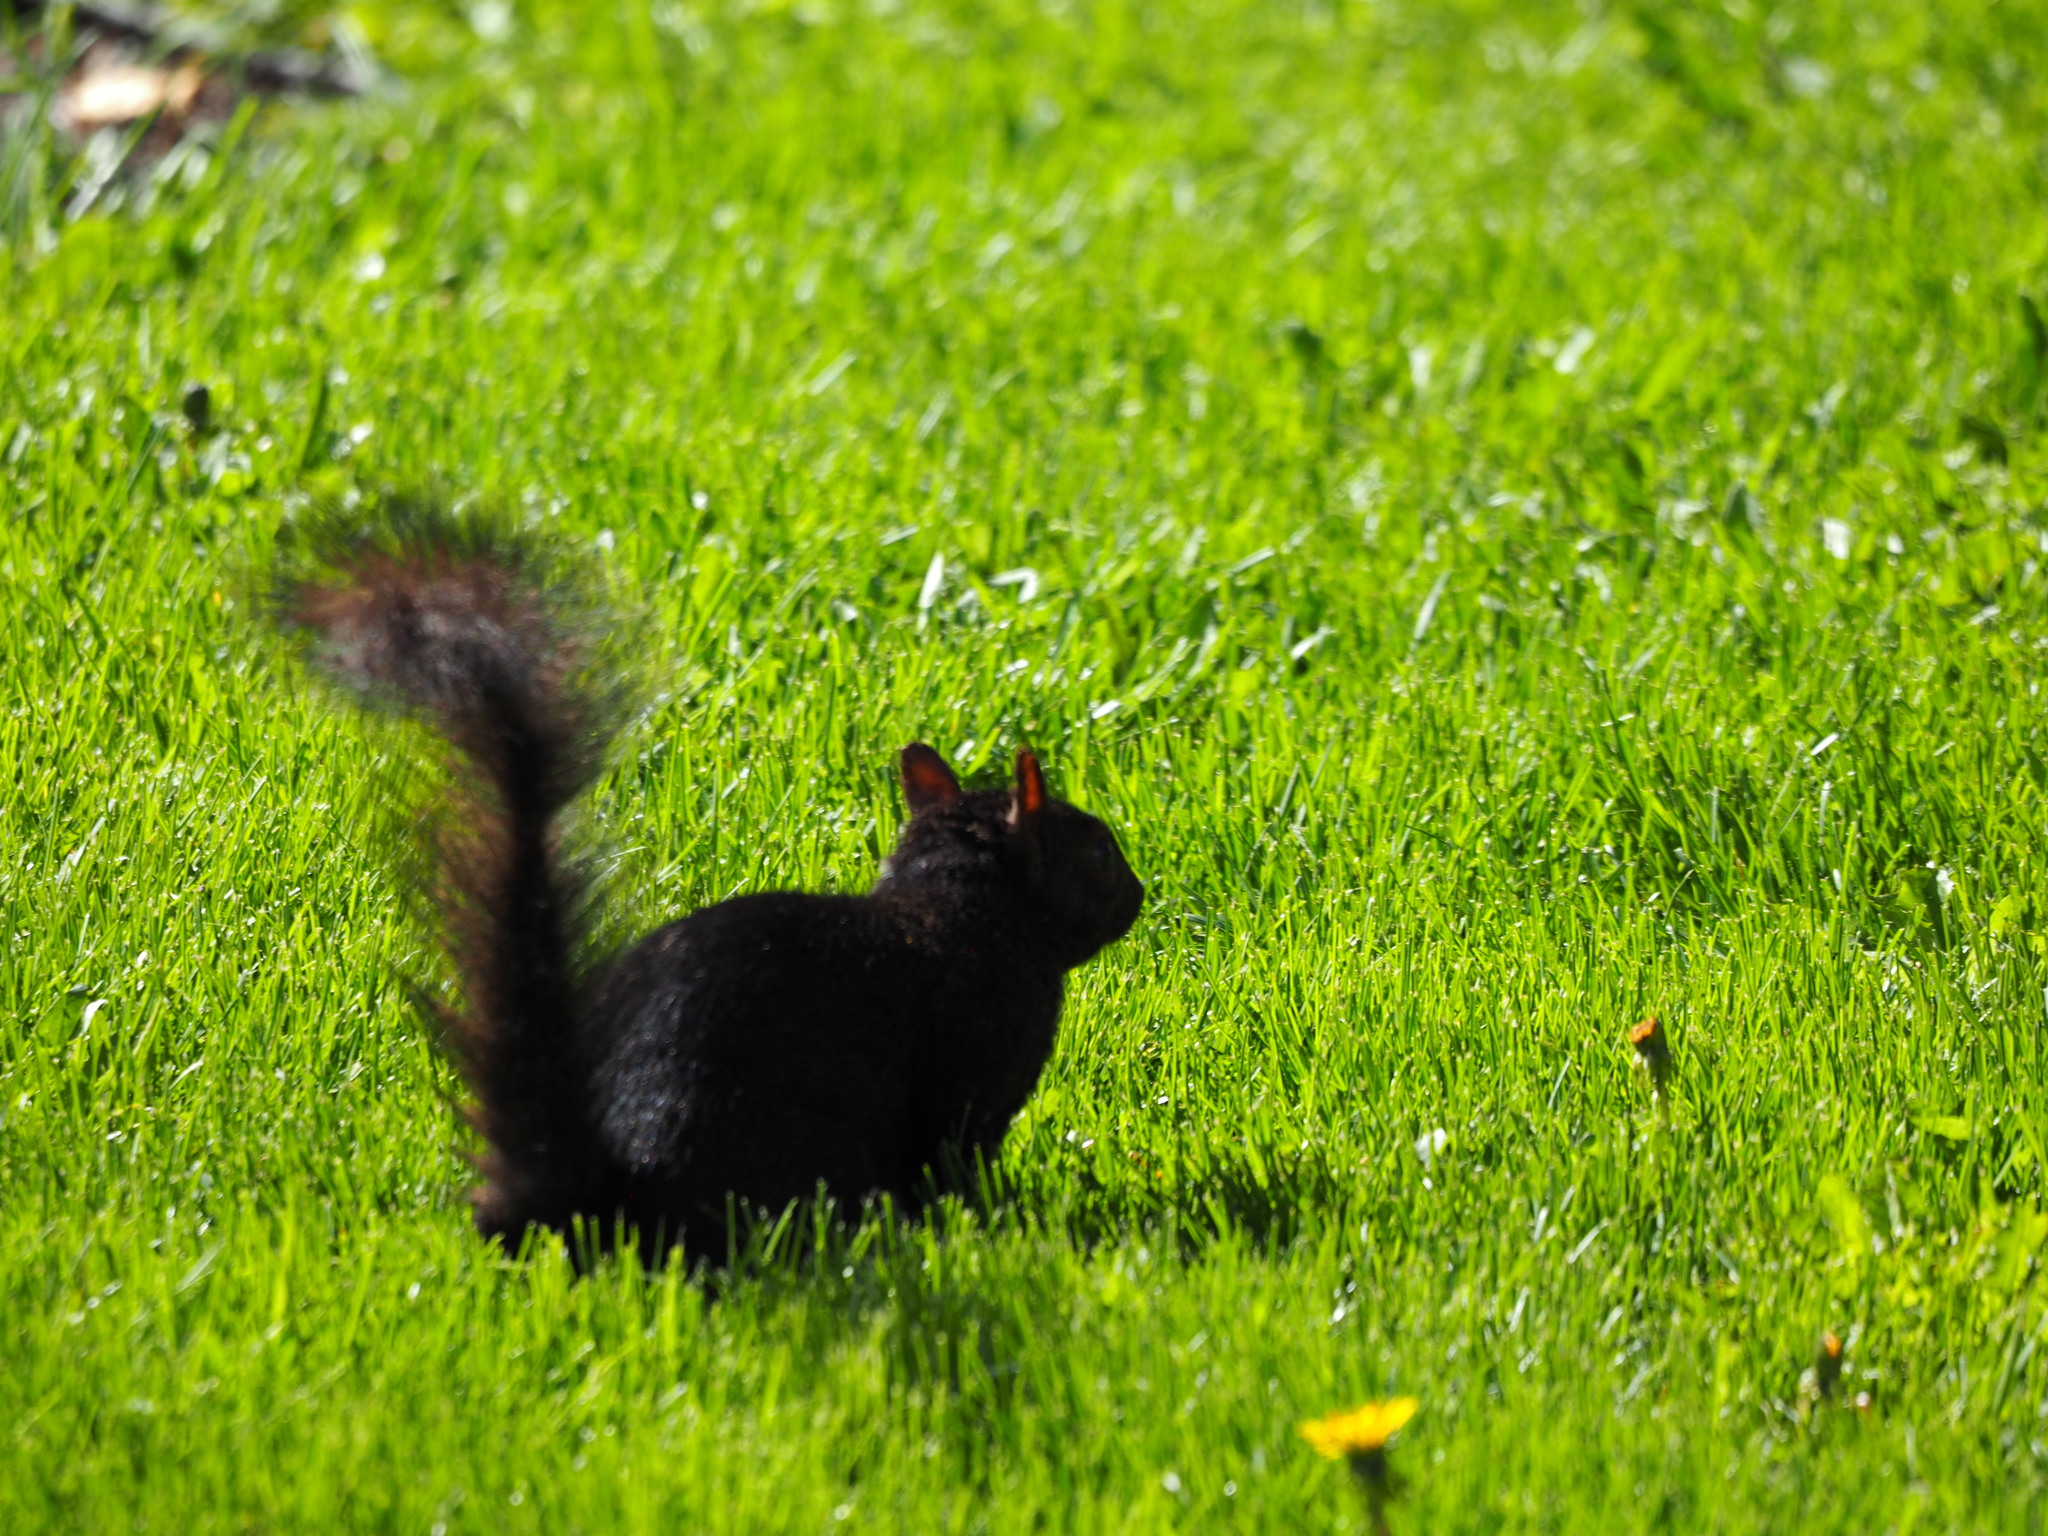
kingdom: Animalia
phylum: Chordata
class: Mammalia
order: Rodentia
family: Sciuridae
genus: Sciurus
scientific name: Sciurus carolinensis
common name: Eastern gray squirrel
